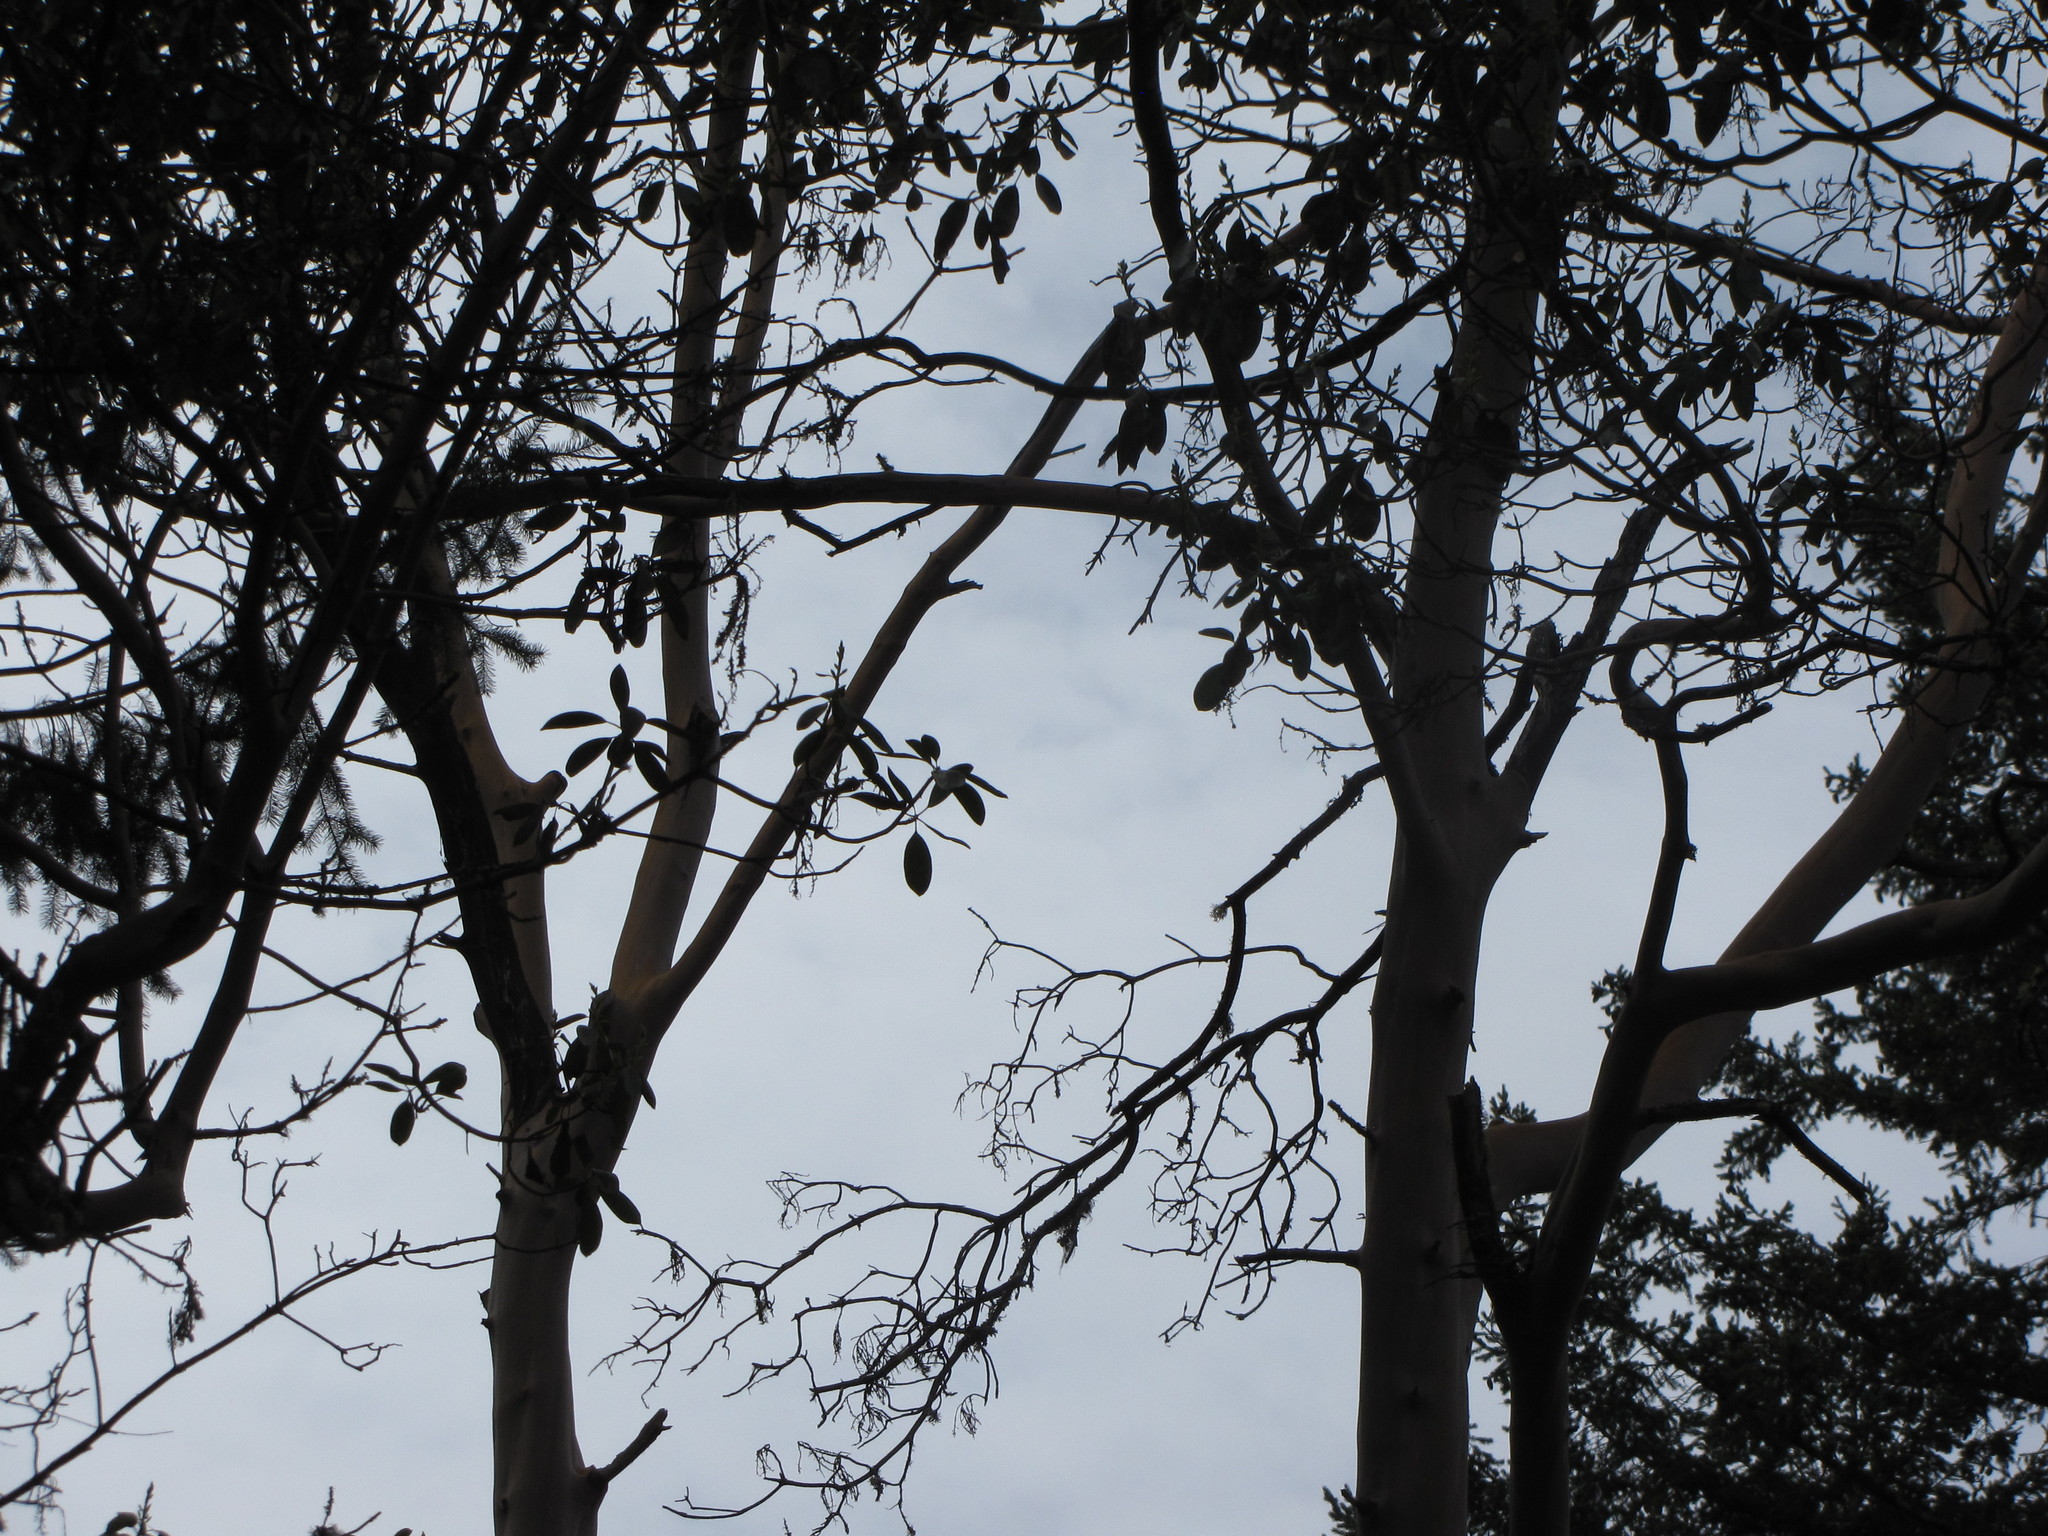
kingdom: Plantae
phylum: Tracheophyta
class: Magnoliopsida
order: Ericales
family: Ericaceae
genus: Arbutus
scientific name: Arbutus menziesii
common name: Pacific madrone
